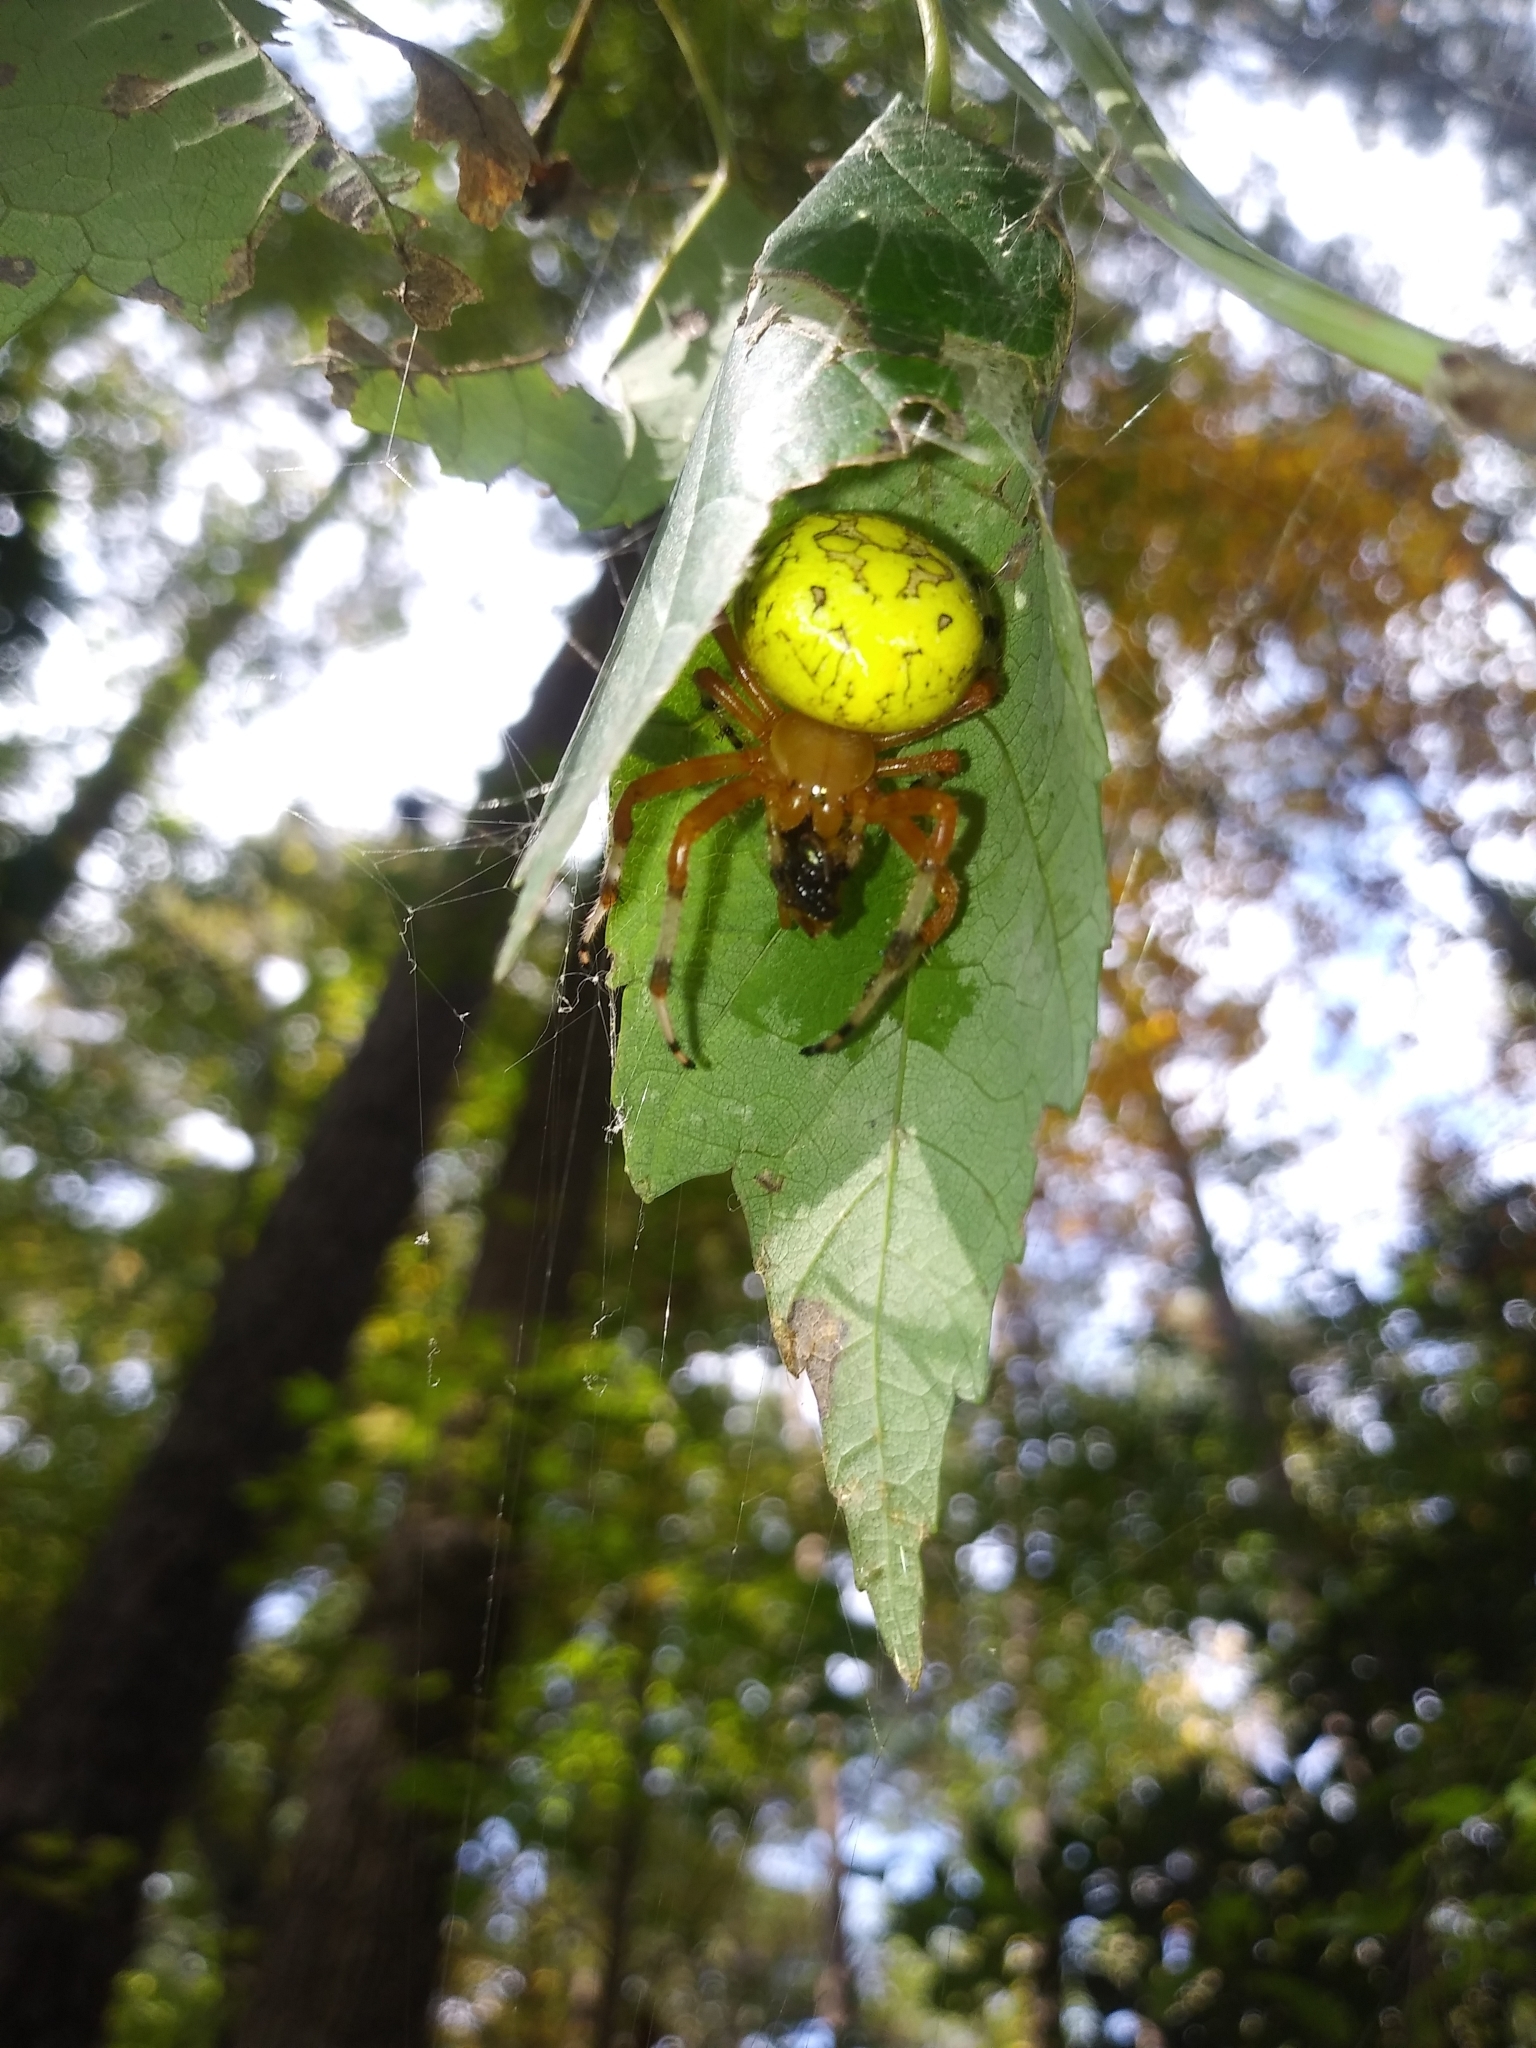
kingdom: Animalia
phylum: Arthropoda
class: Arachnida
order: Araneae
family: Araneidae
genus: Araneus
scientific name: Araneus marmoreus
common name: Marbled orbweaver
